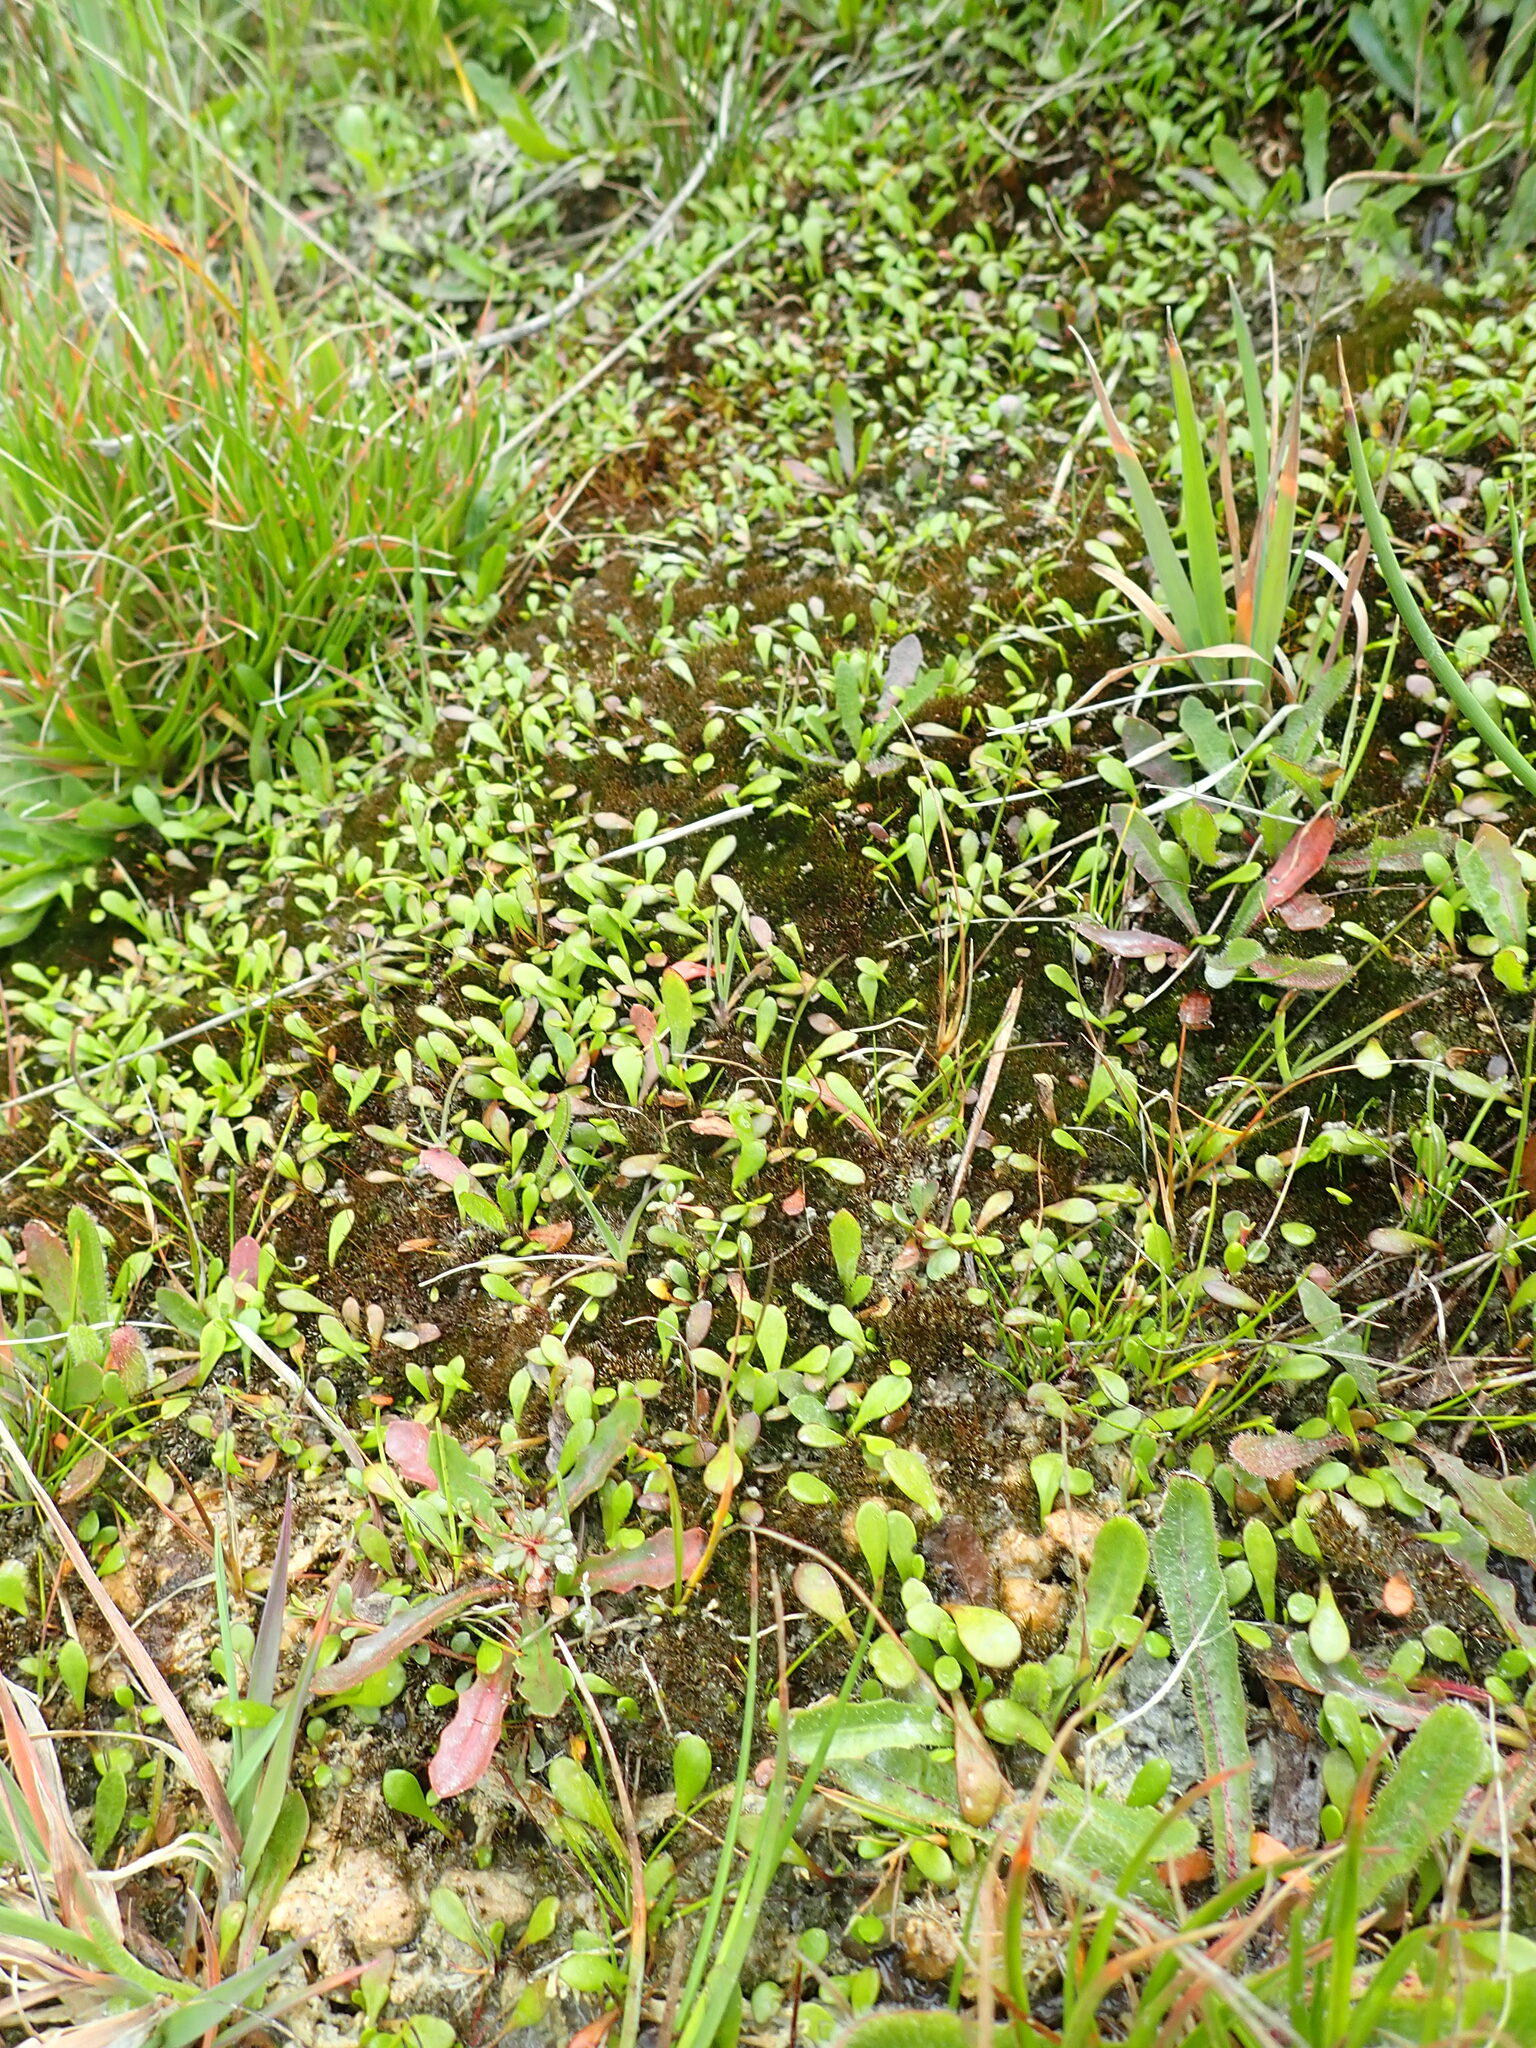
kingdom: Plantae
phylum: Tracheophyta
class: Magnoliopsida
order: Asterales
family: Goodeniaceae
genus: Goodenia
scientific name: Goodenia radicans
